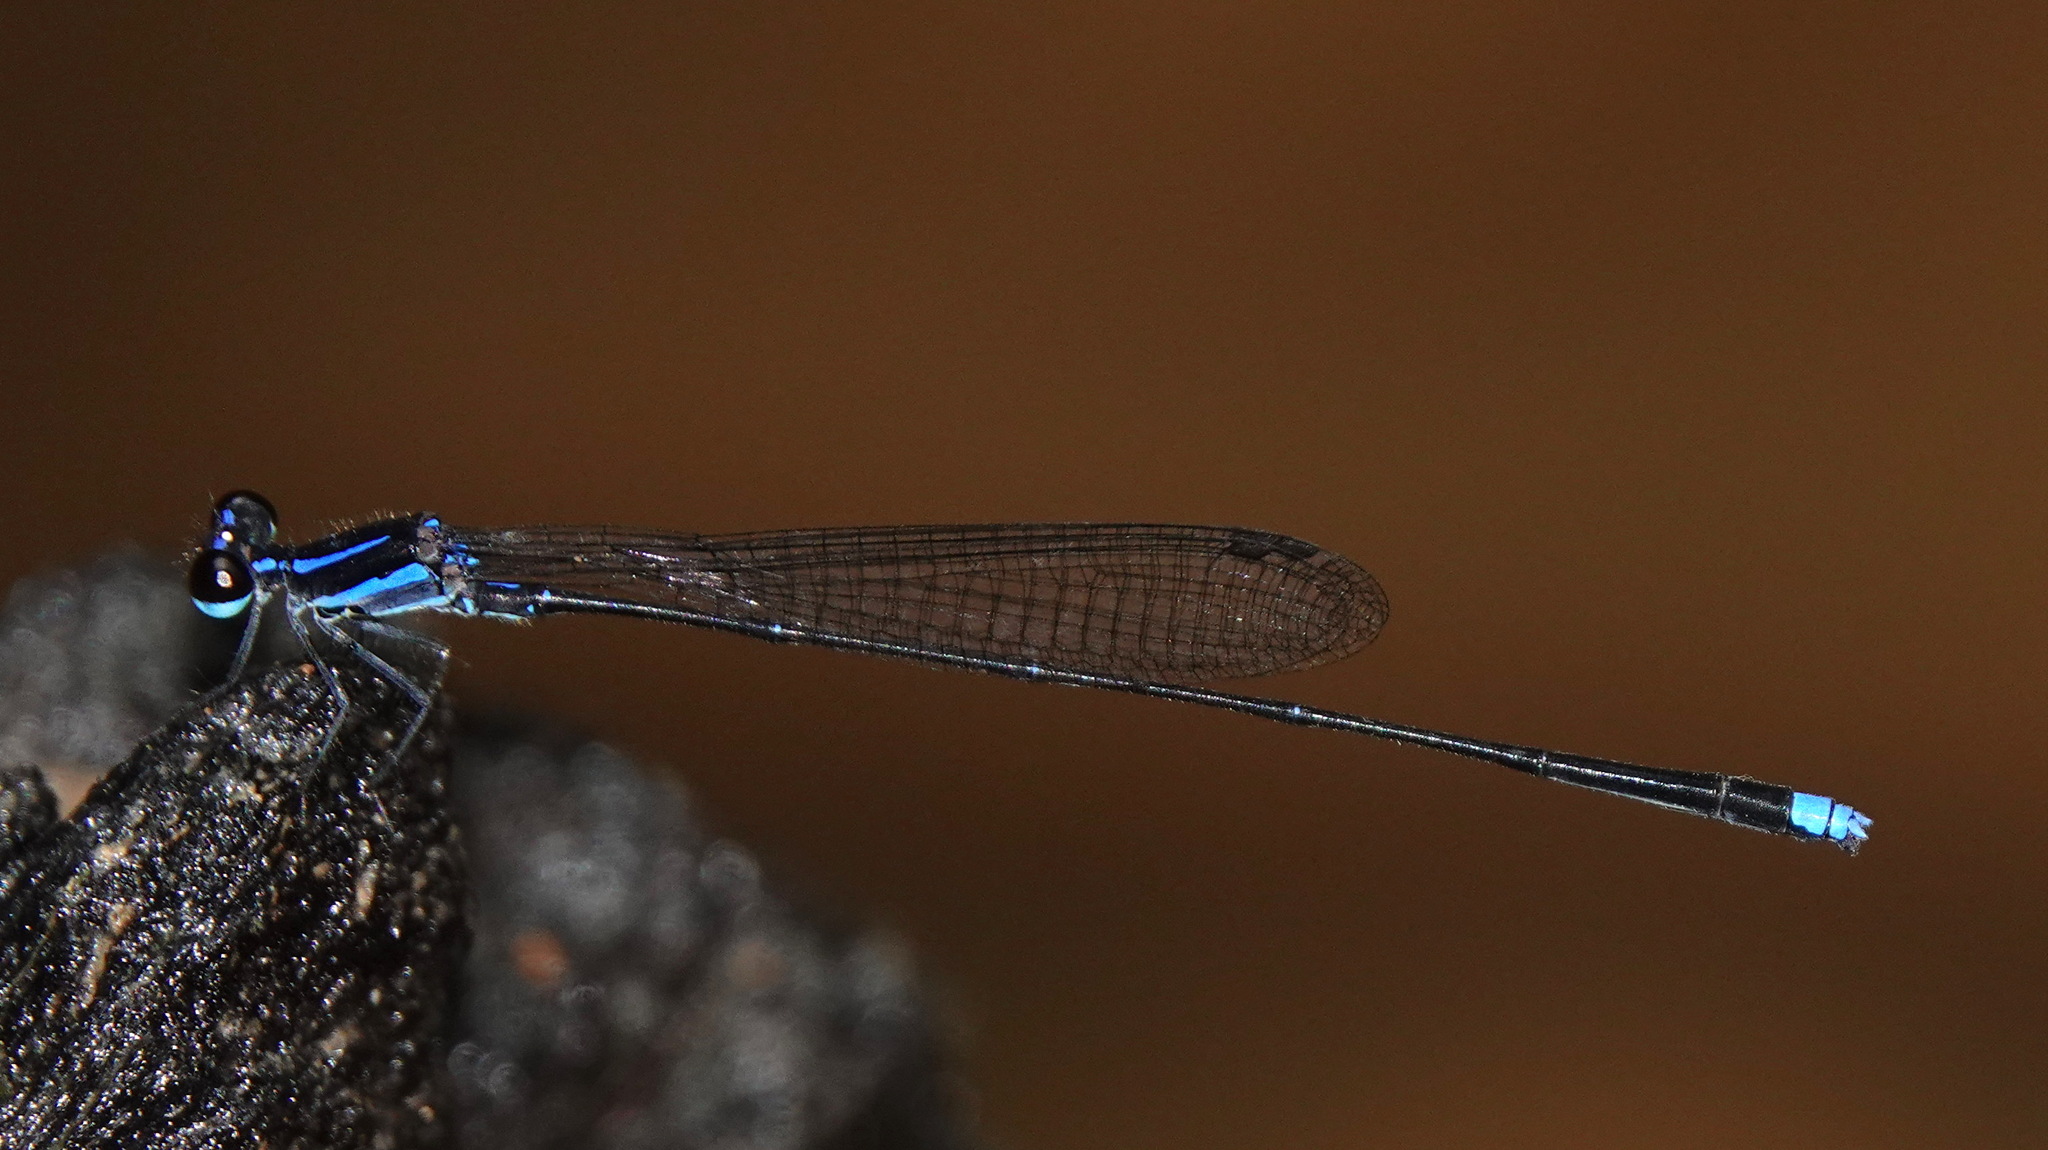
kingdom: Animalia
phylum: Arthropoda
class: Insecta
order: Odonata
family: Platycnemididae
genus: Prodasineura
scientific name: Prodasineura laidlawii
